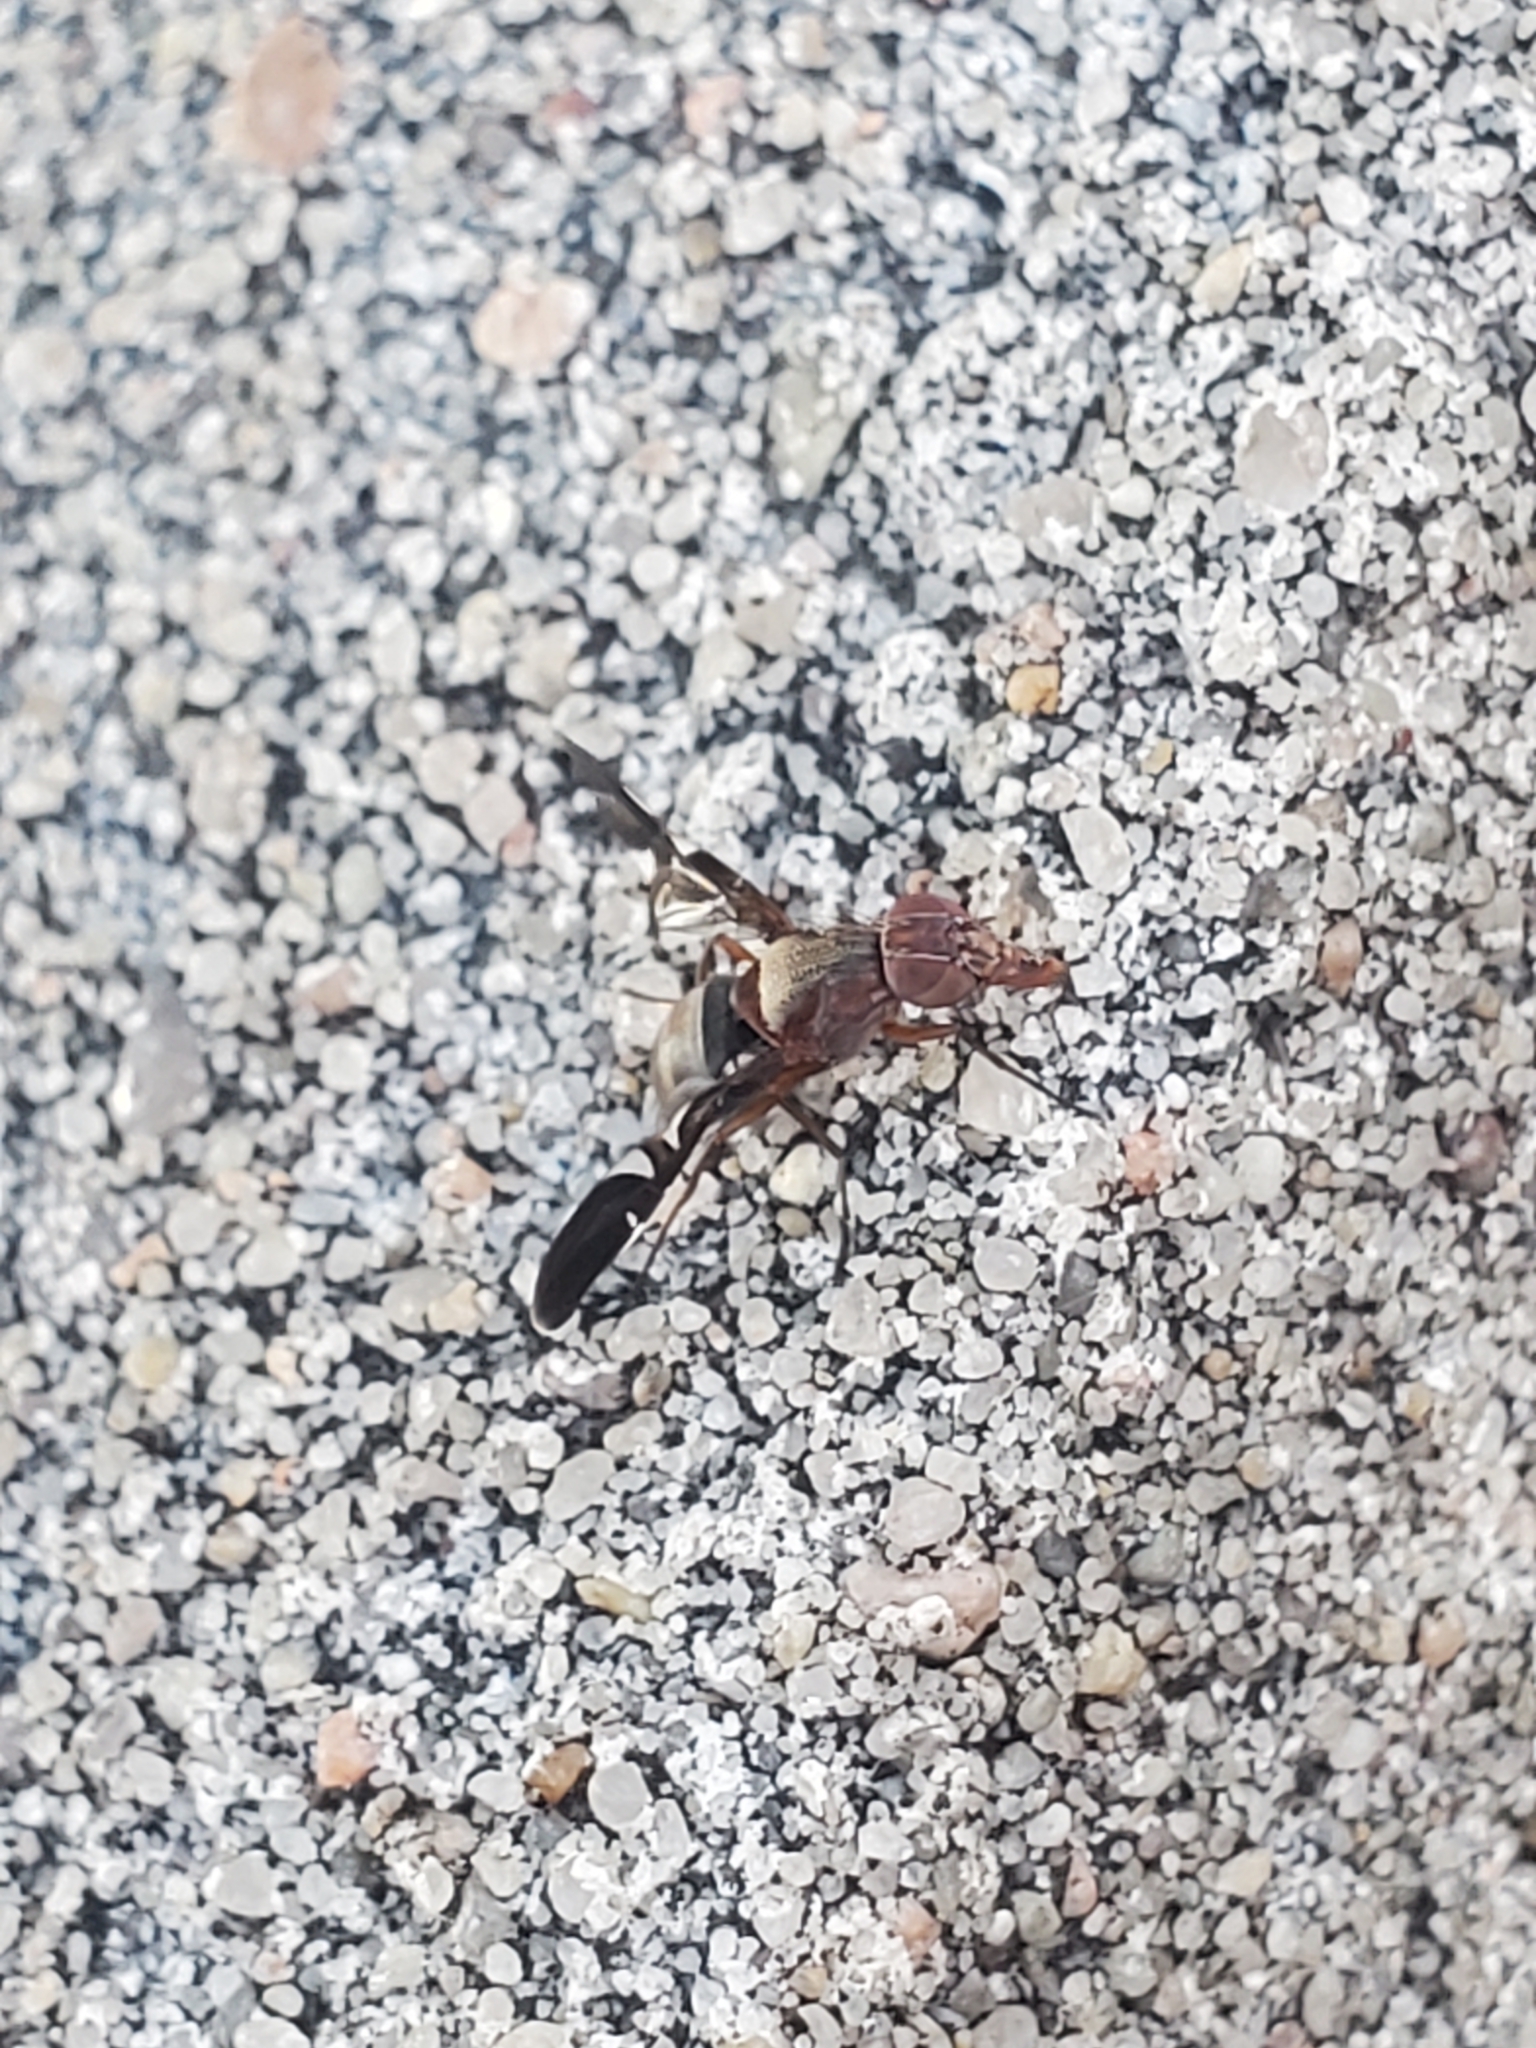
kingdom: Animalia
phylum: Arthropoda
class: Insecta
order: Diptera
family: Ulidiidae
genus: Delphinia
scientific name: Delphinia picta
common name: Common picture-winged fly
